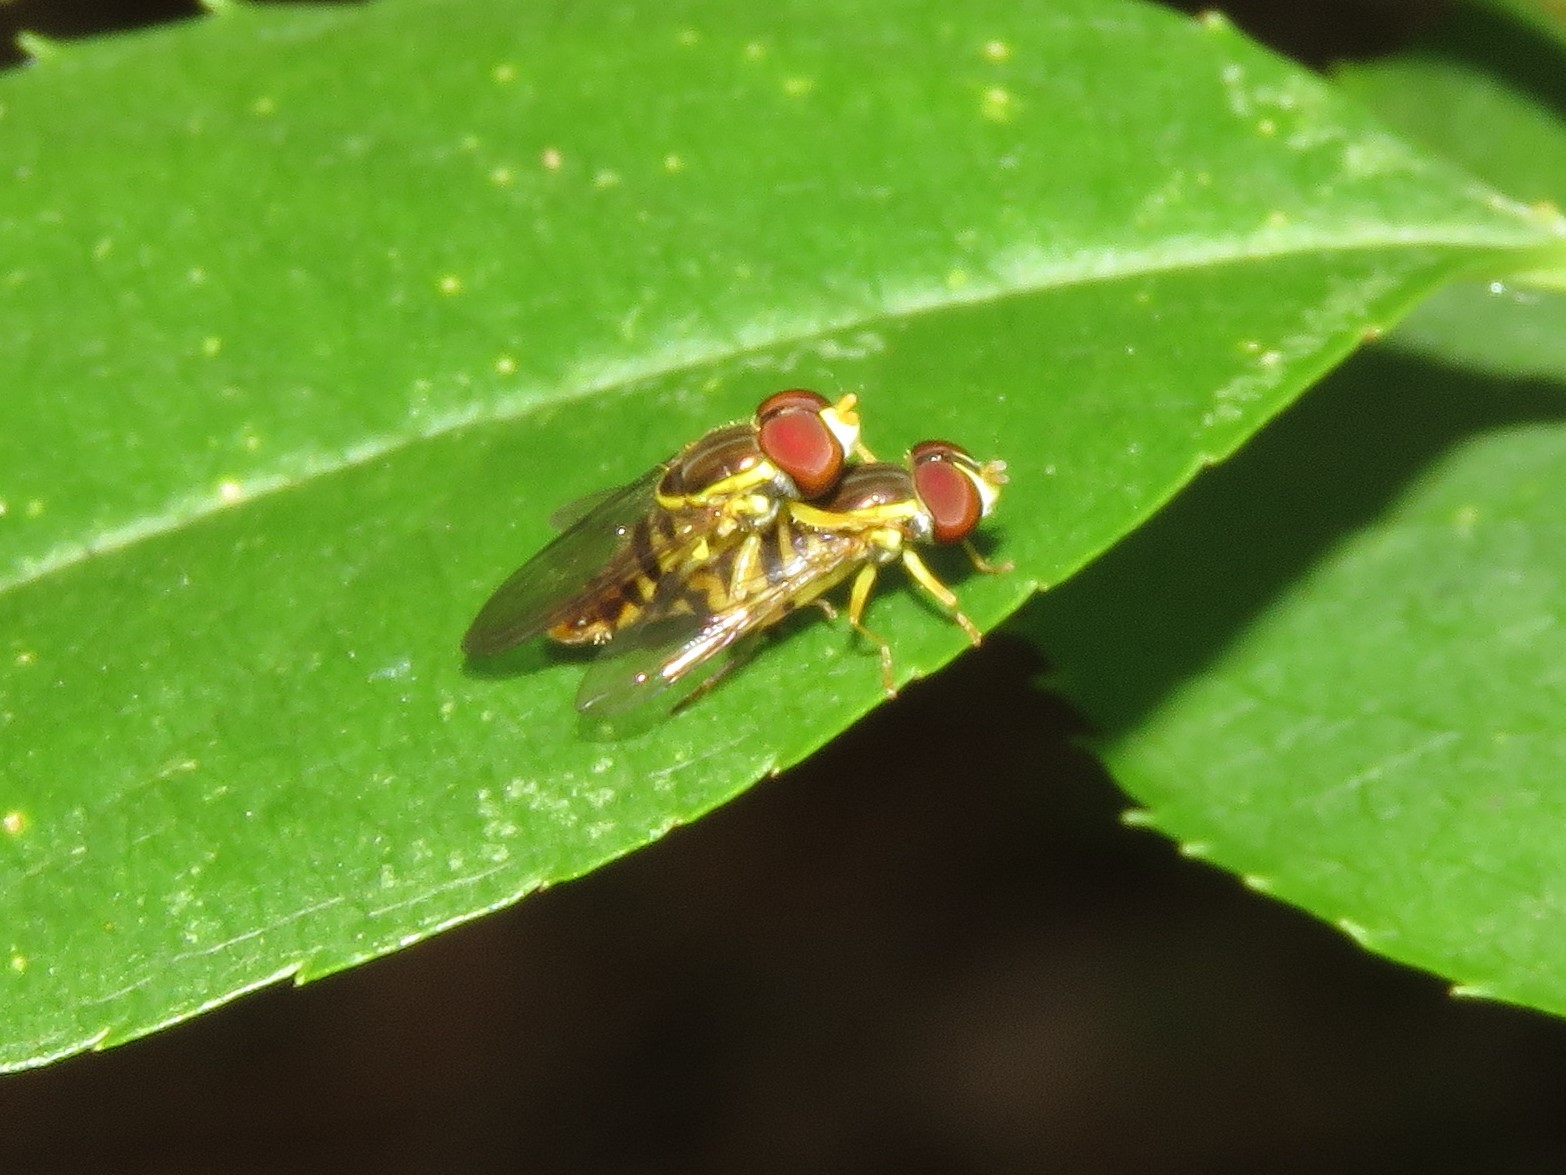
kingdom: Animalia
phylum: Arthropoda
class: Insecta
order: Diptera
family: Syrphidae
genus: Toxomerus
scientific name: Toxomerus geminatus
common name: Eastern calligrapher
